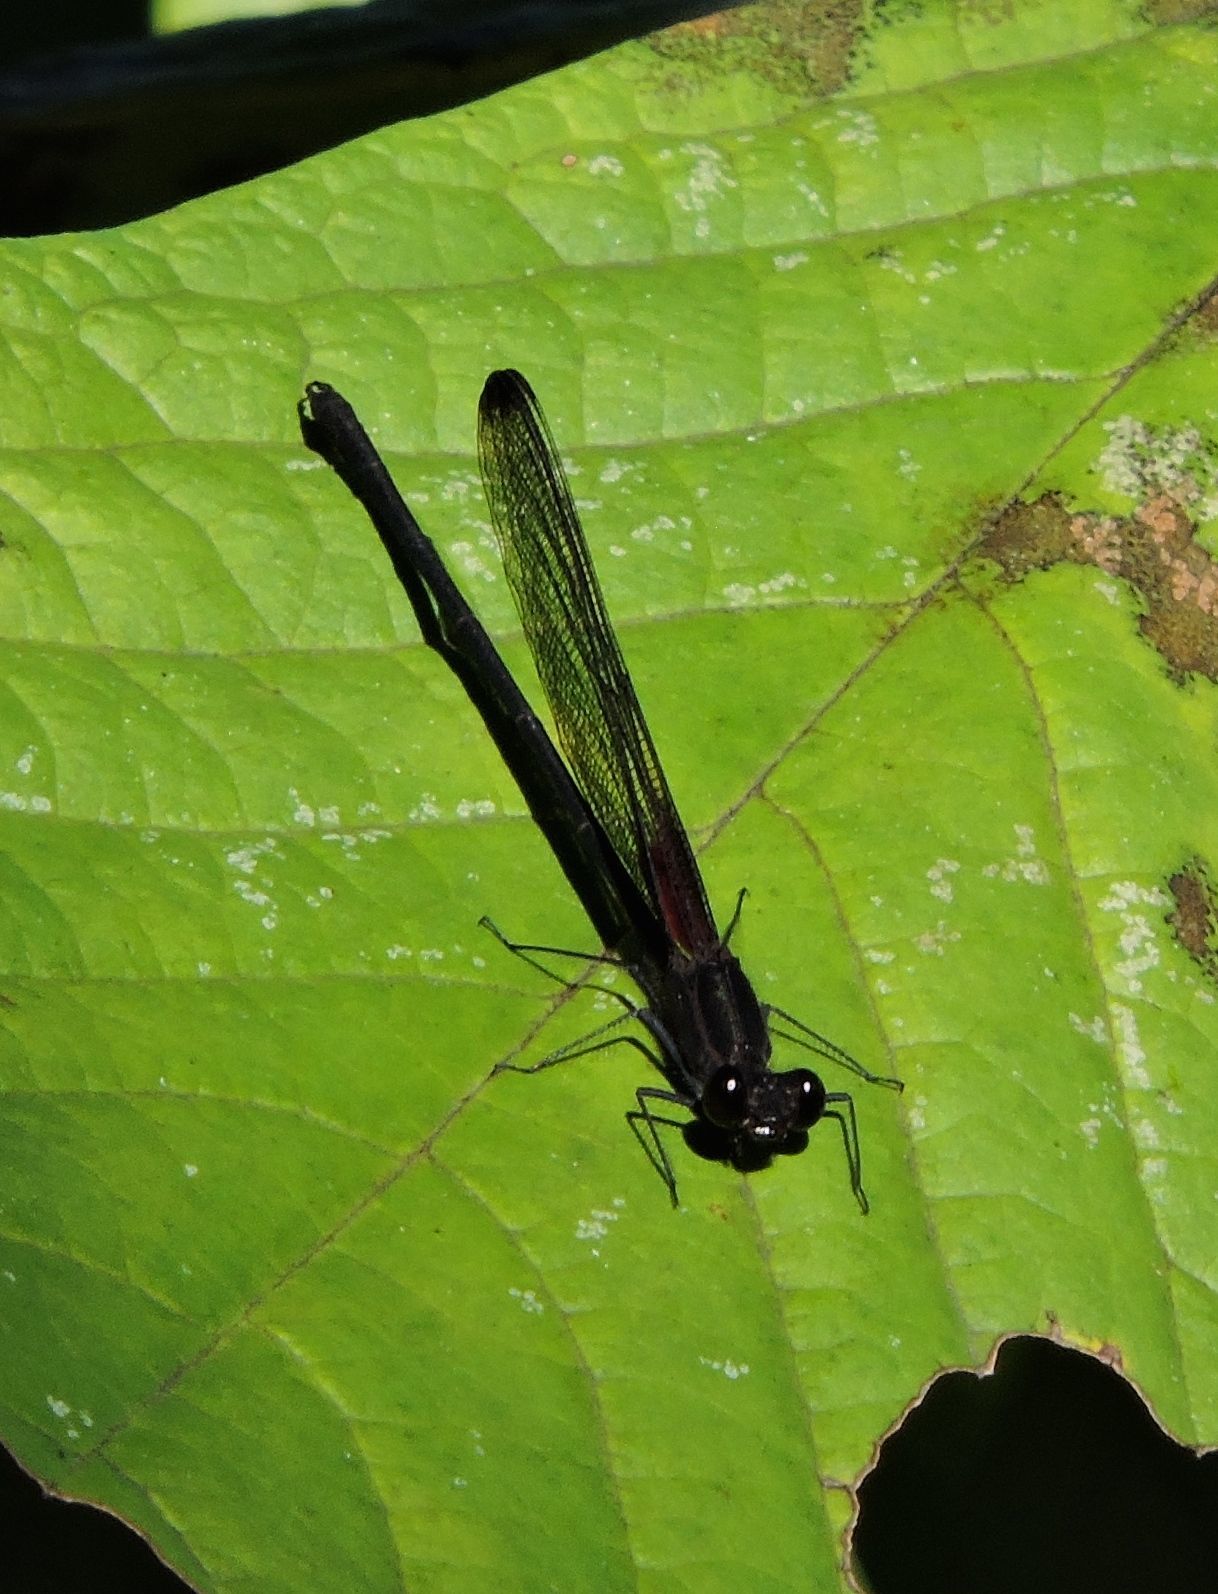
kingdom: Animalia
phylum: Arthropoda
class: Insecta
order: Odonata
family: Calopterygidae
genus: Hetaerina
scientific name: Hetaerina titia
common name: Smoky rubyspot
